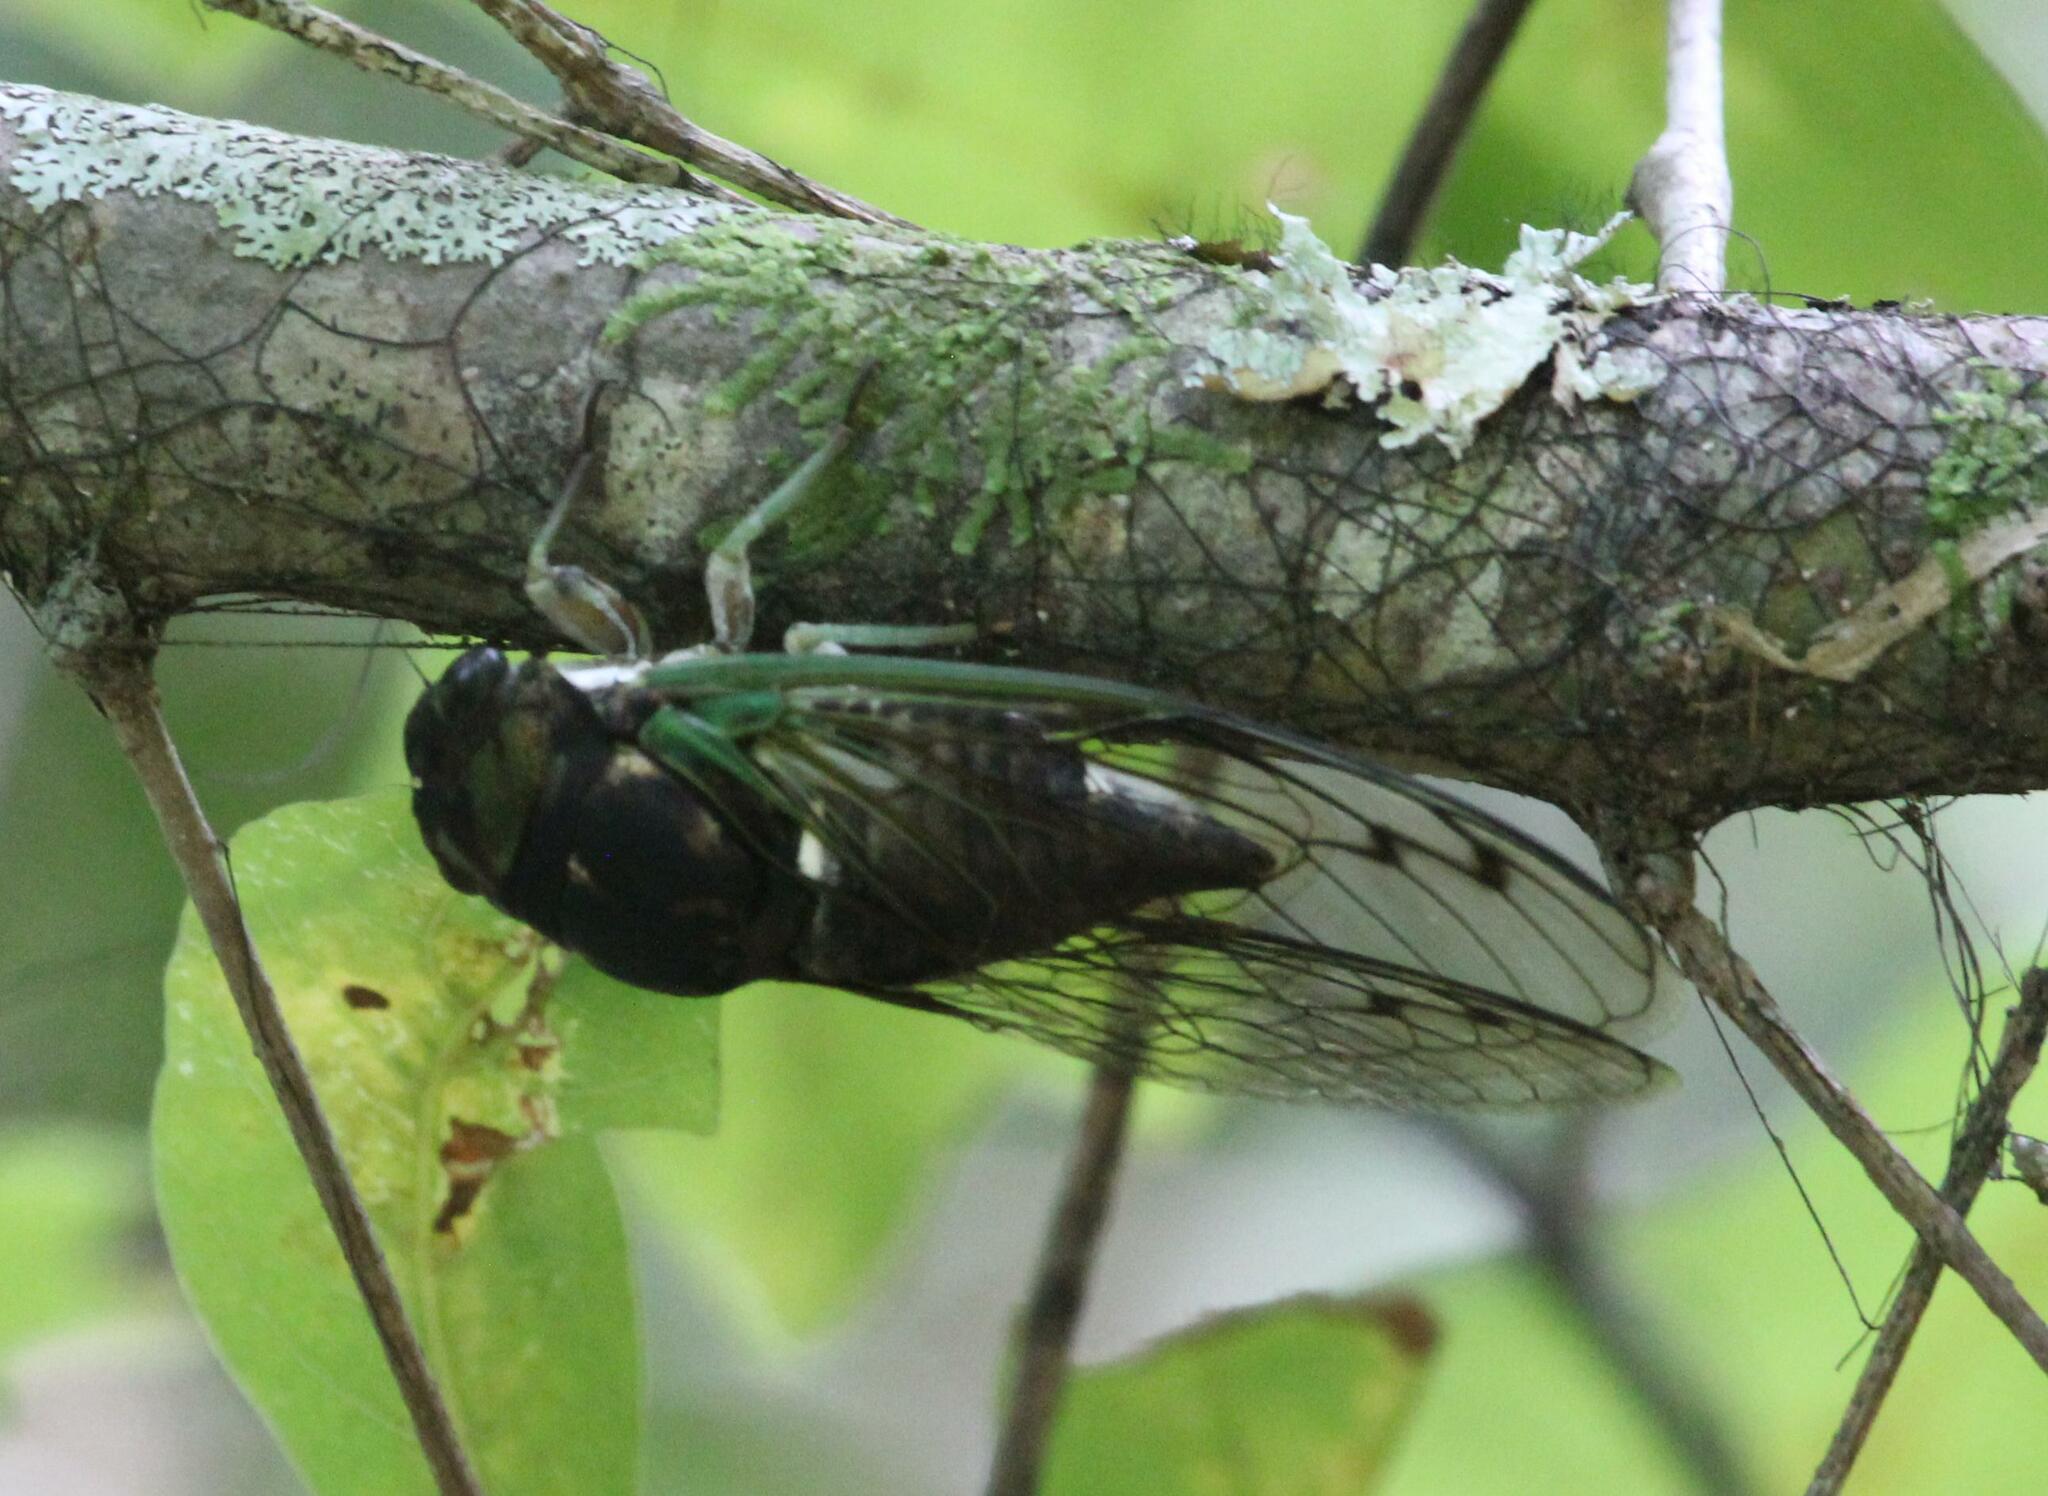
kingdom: Animalia
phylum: Arthropoda
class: Insecta
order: Hemiptera
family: Cicadidae
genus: Neotibicen
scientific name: Neotibicen tibicen
